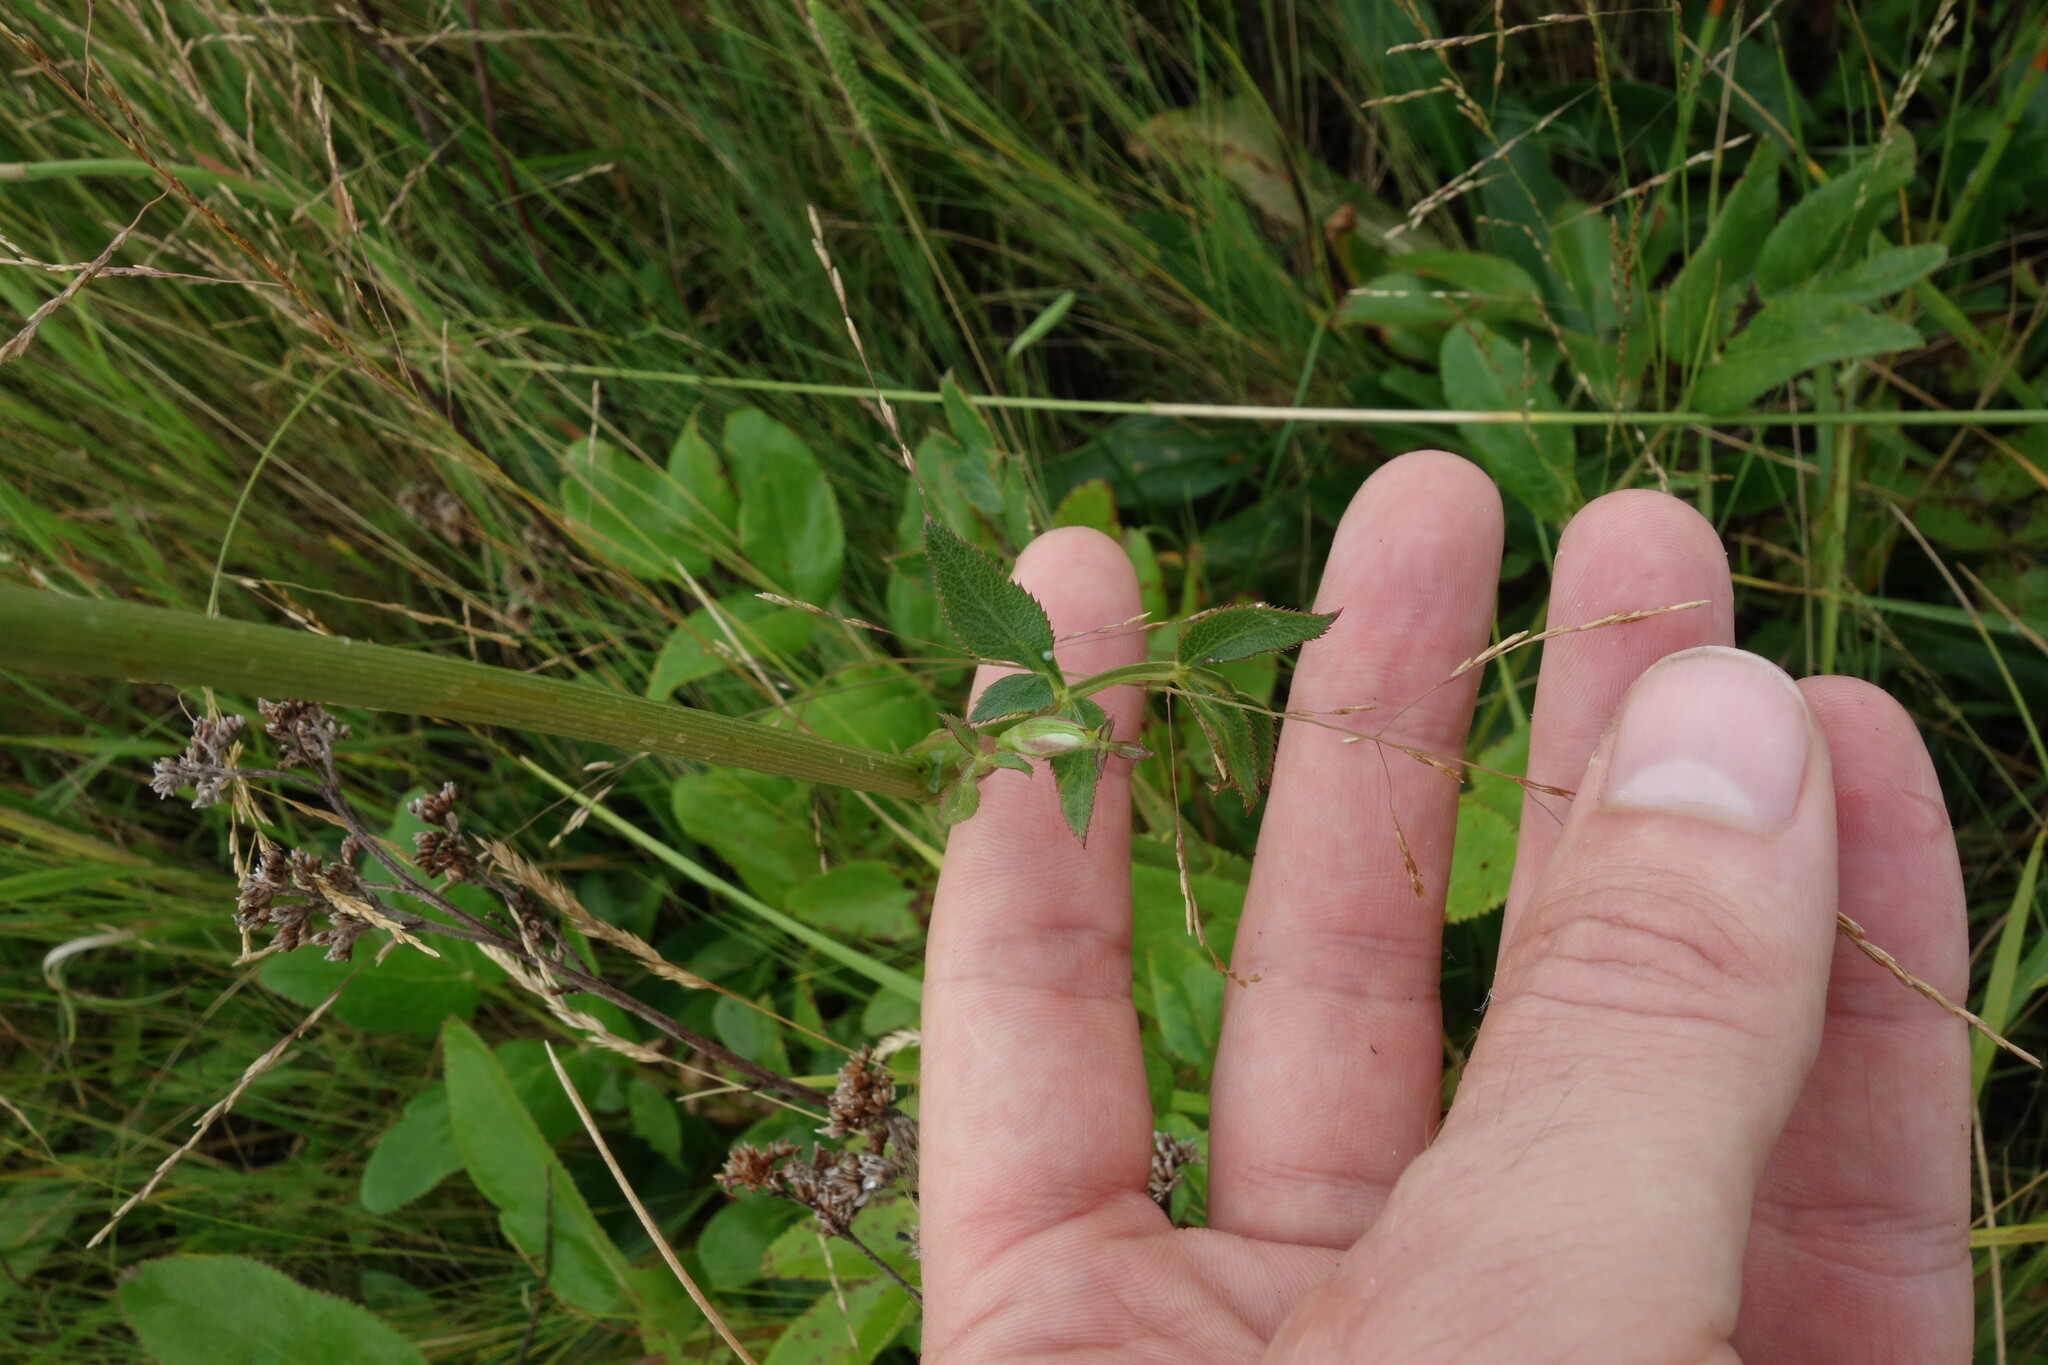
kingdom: Plantae
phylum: Tracheophyta
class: Magnoliopsida
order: Apiales
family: Apiaceae
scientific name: Apiaceae
